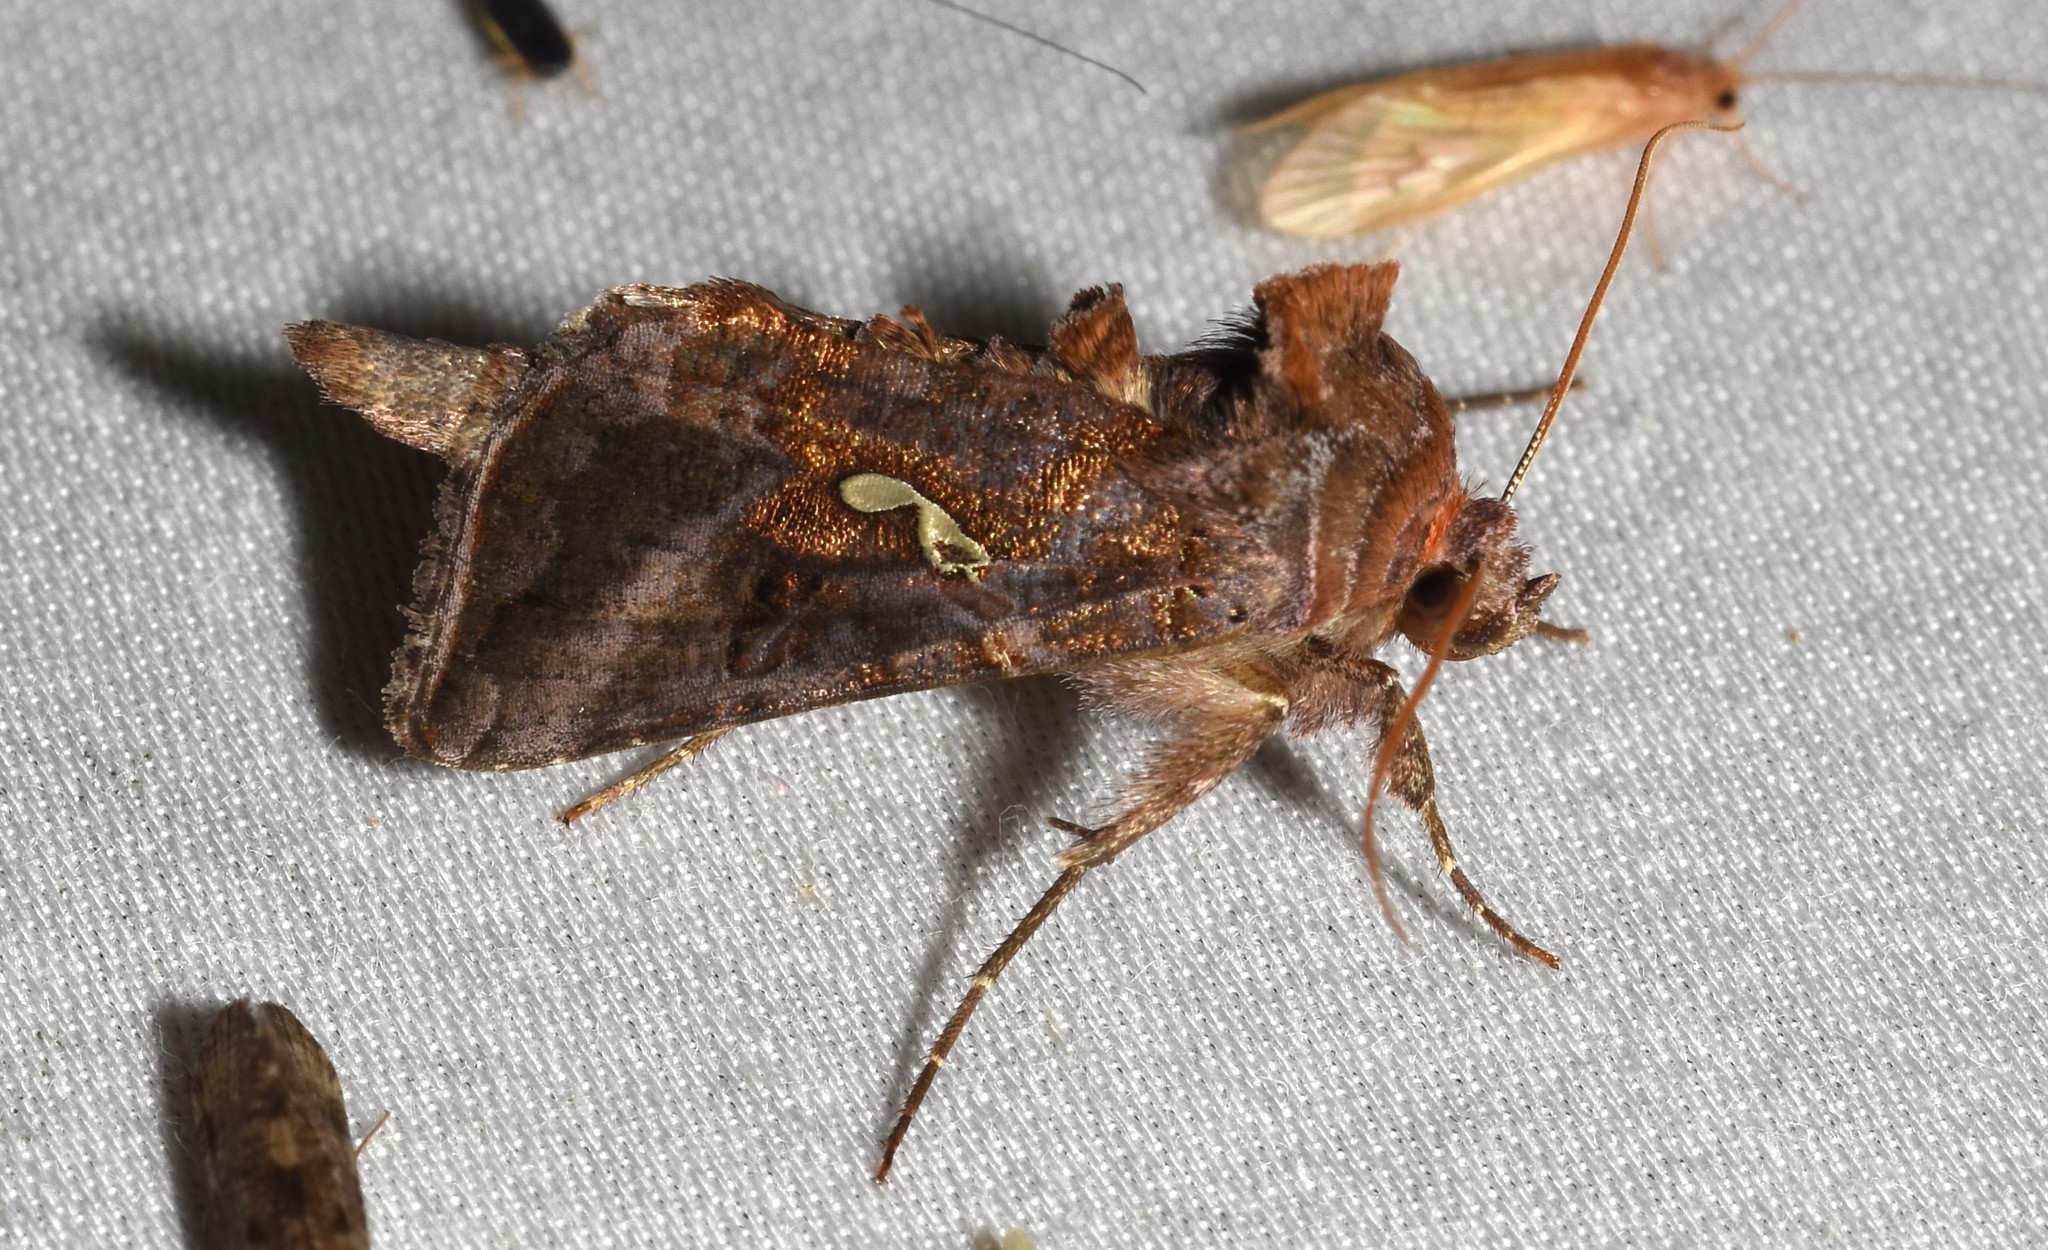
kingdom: Animalia
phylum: Arthropoda
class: Insecta
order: Lepidoptera
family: Noctuidae
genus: Autographa
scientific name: Autographa precationis
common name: Common looper moth
